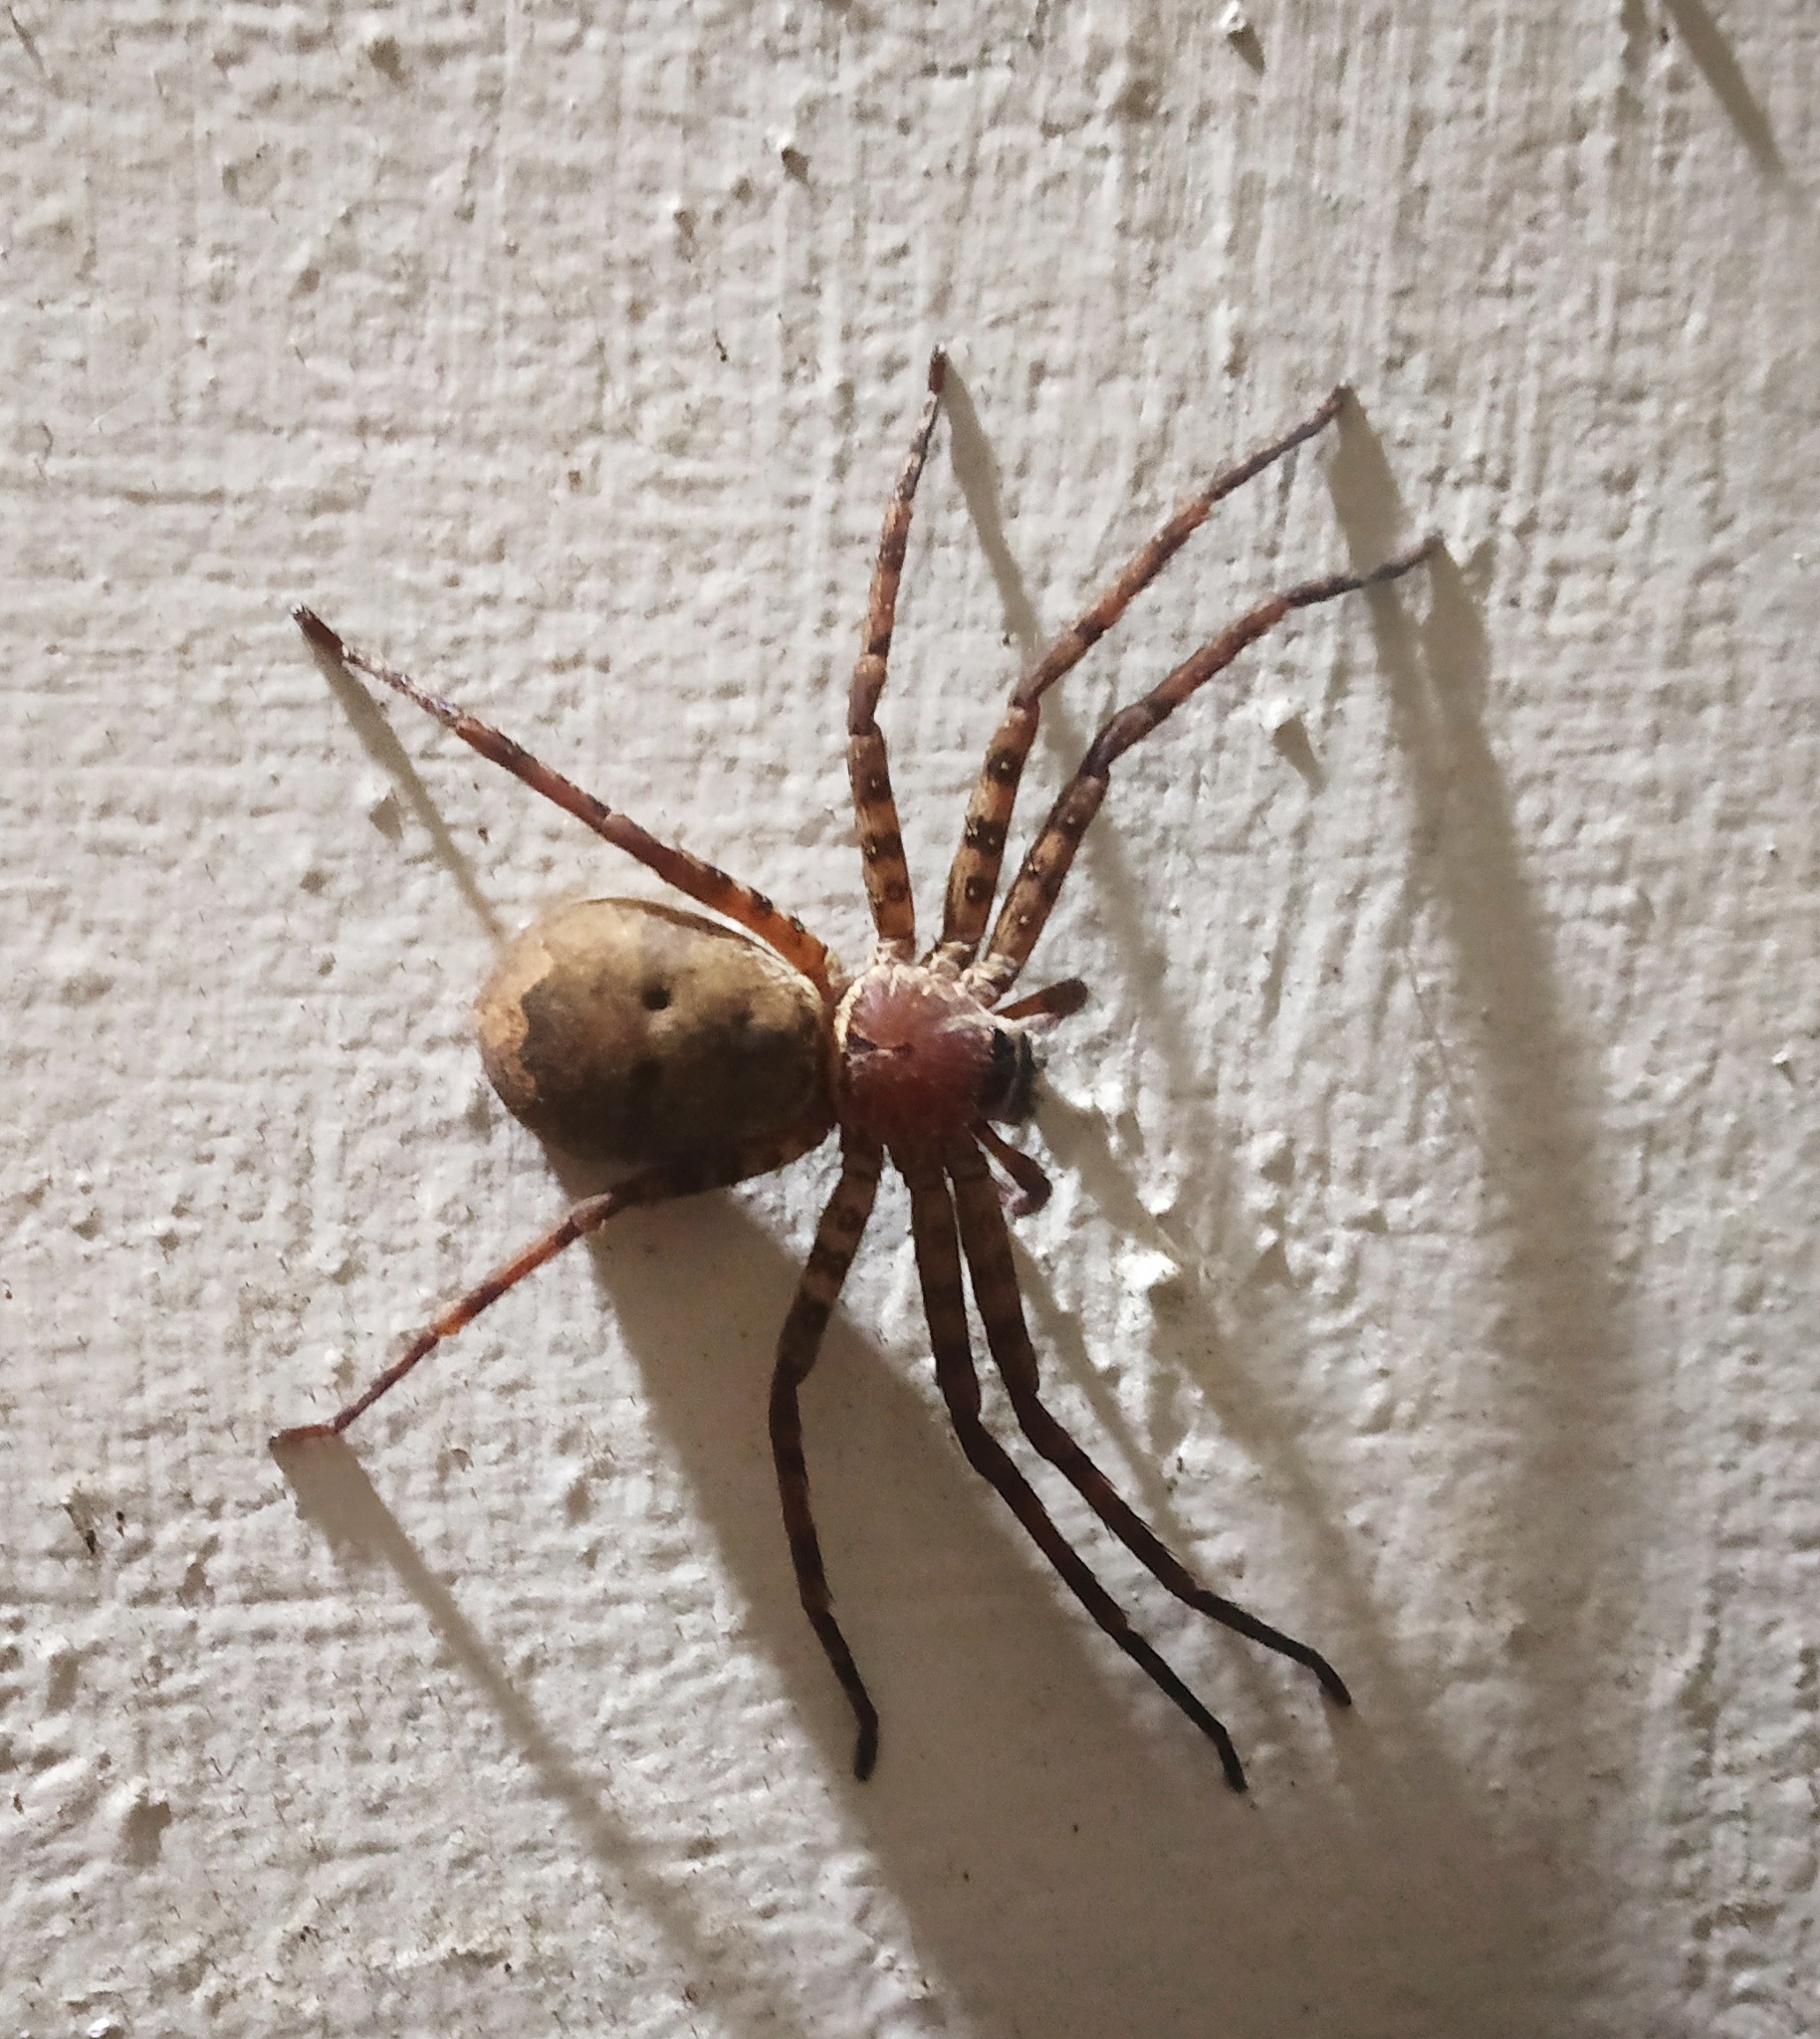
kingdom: Animalia
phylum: Arthropoda
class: Arachnida
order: Araneae
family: Sparassidae
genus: Heteropoda
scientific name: Heteropoda venatoria
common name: Huntsman spider
